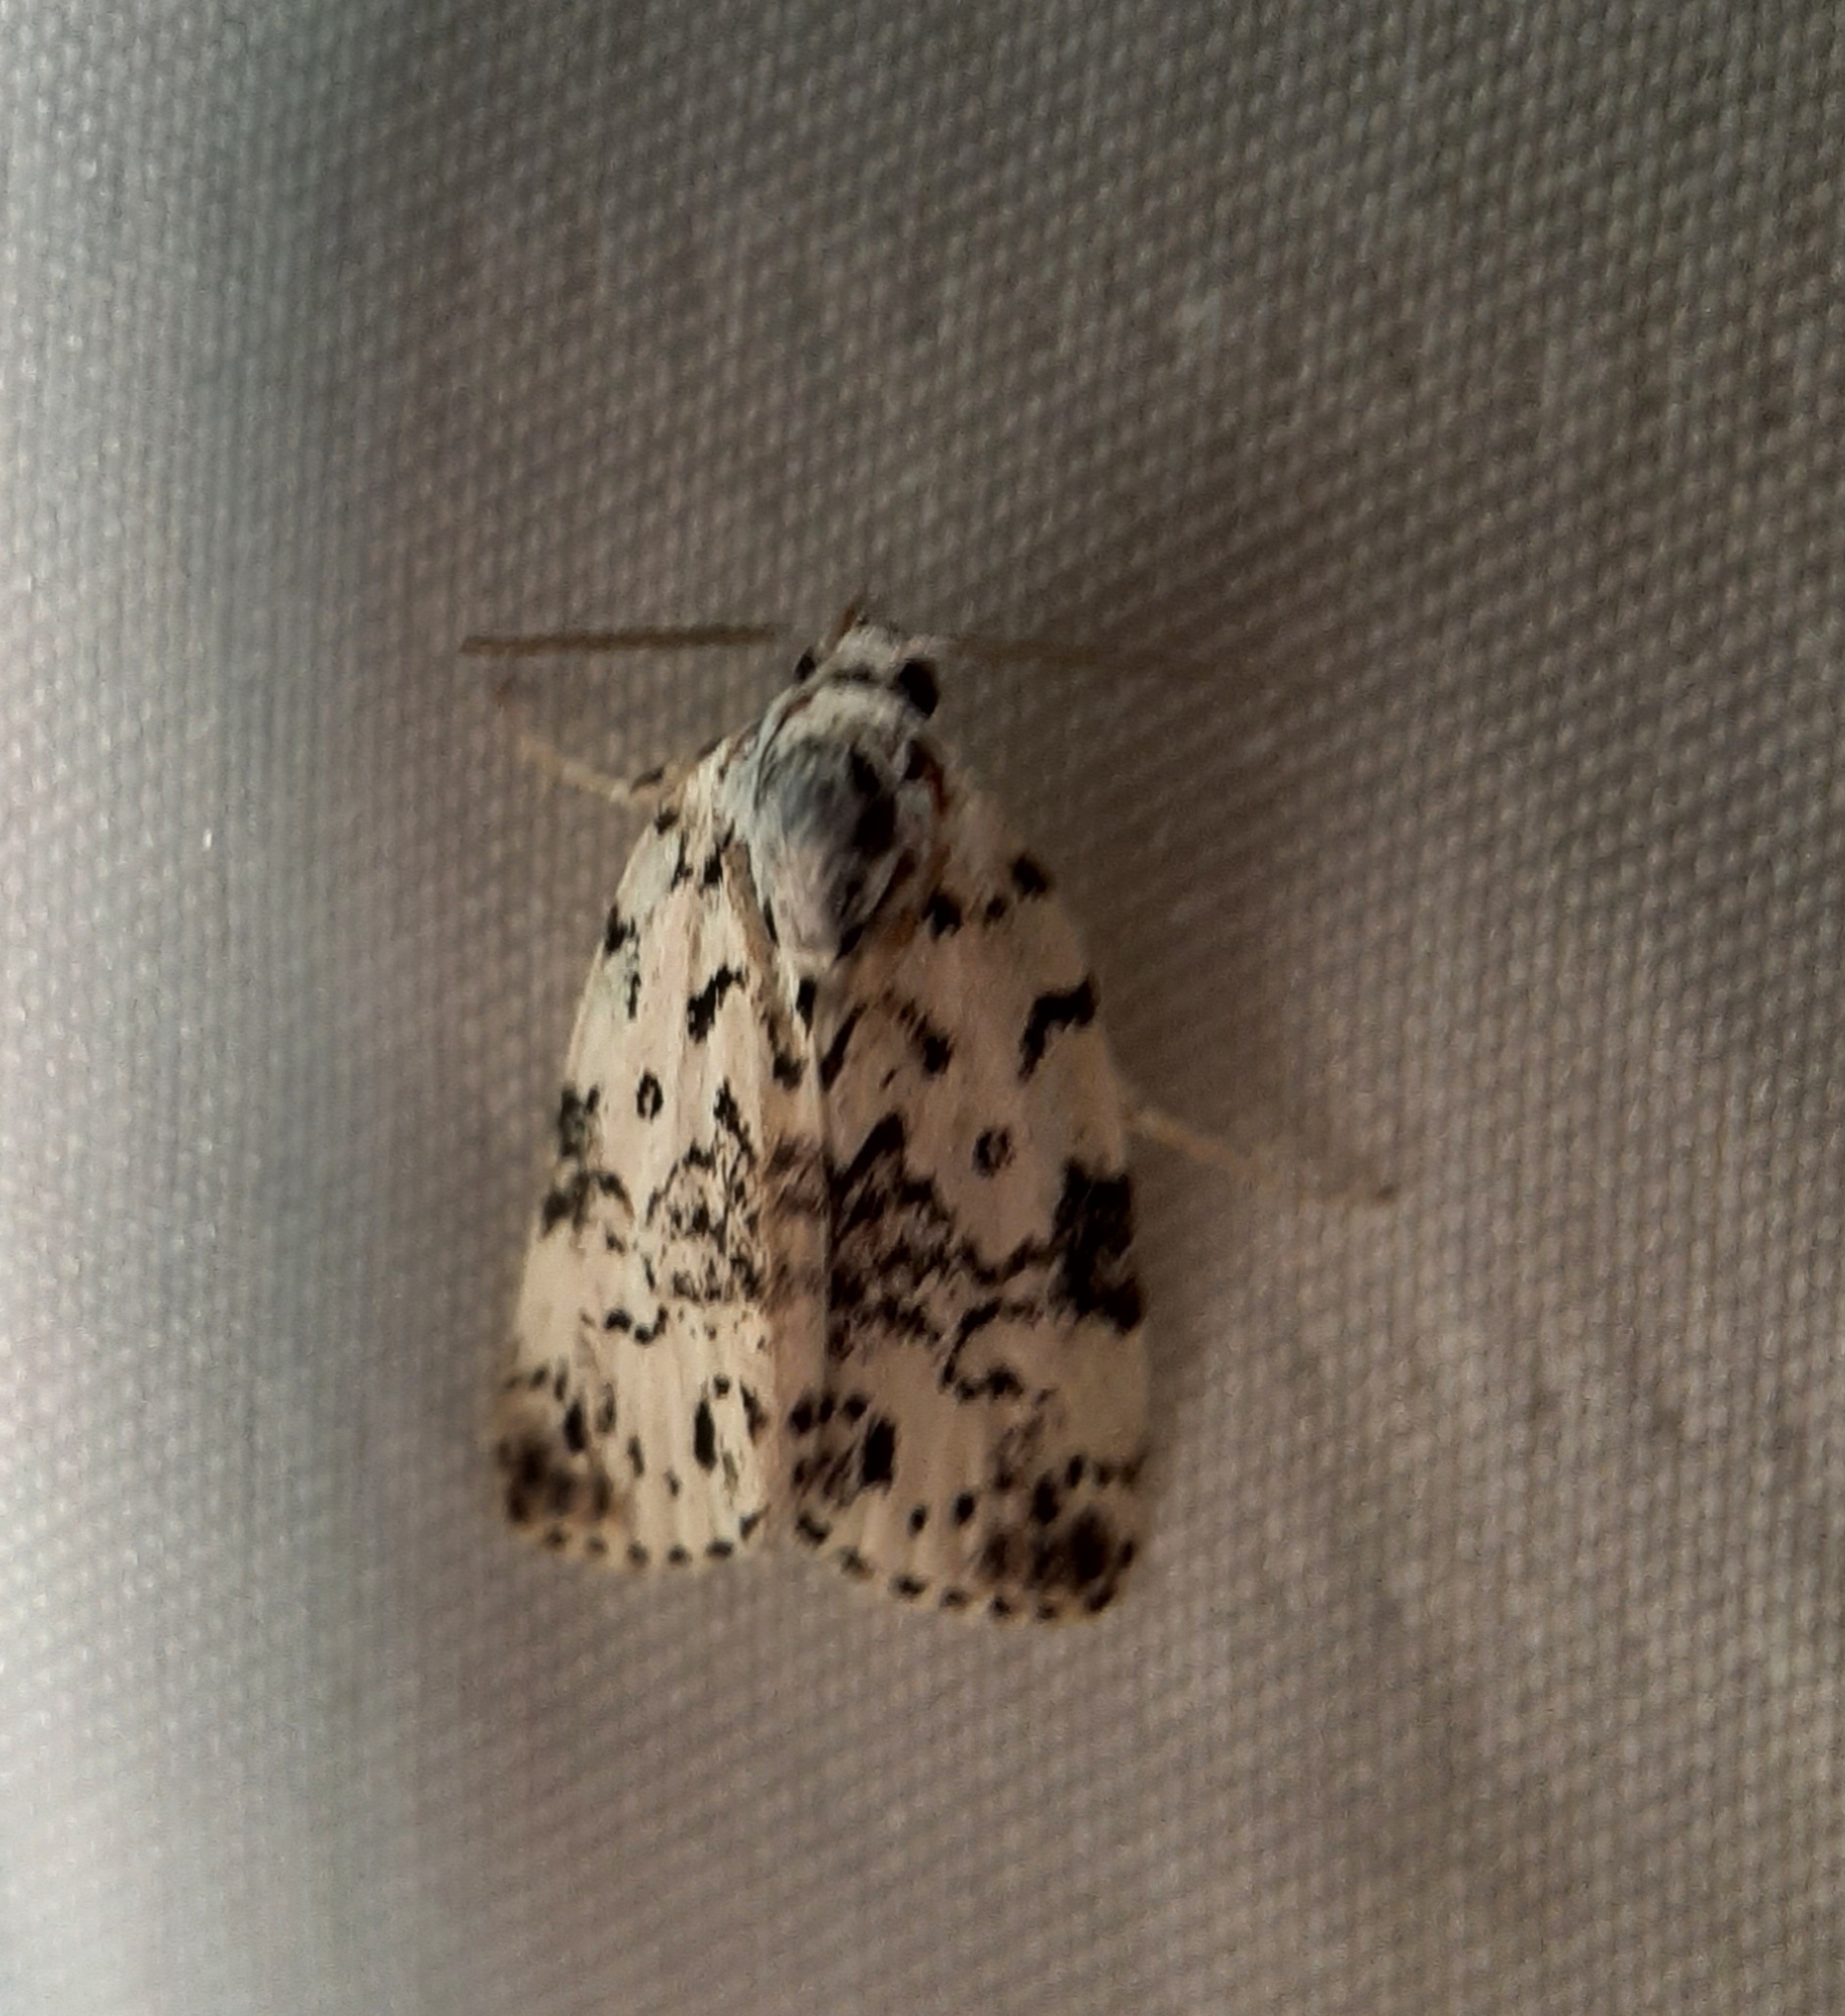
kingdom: Animalia
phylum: Arthropoda
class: Insecta
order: Lepidoptera
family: Noctuidae
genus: Polygrammate
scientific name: Polygrammate hebraeicum
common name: Hebrew moth
